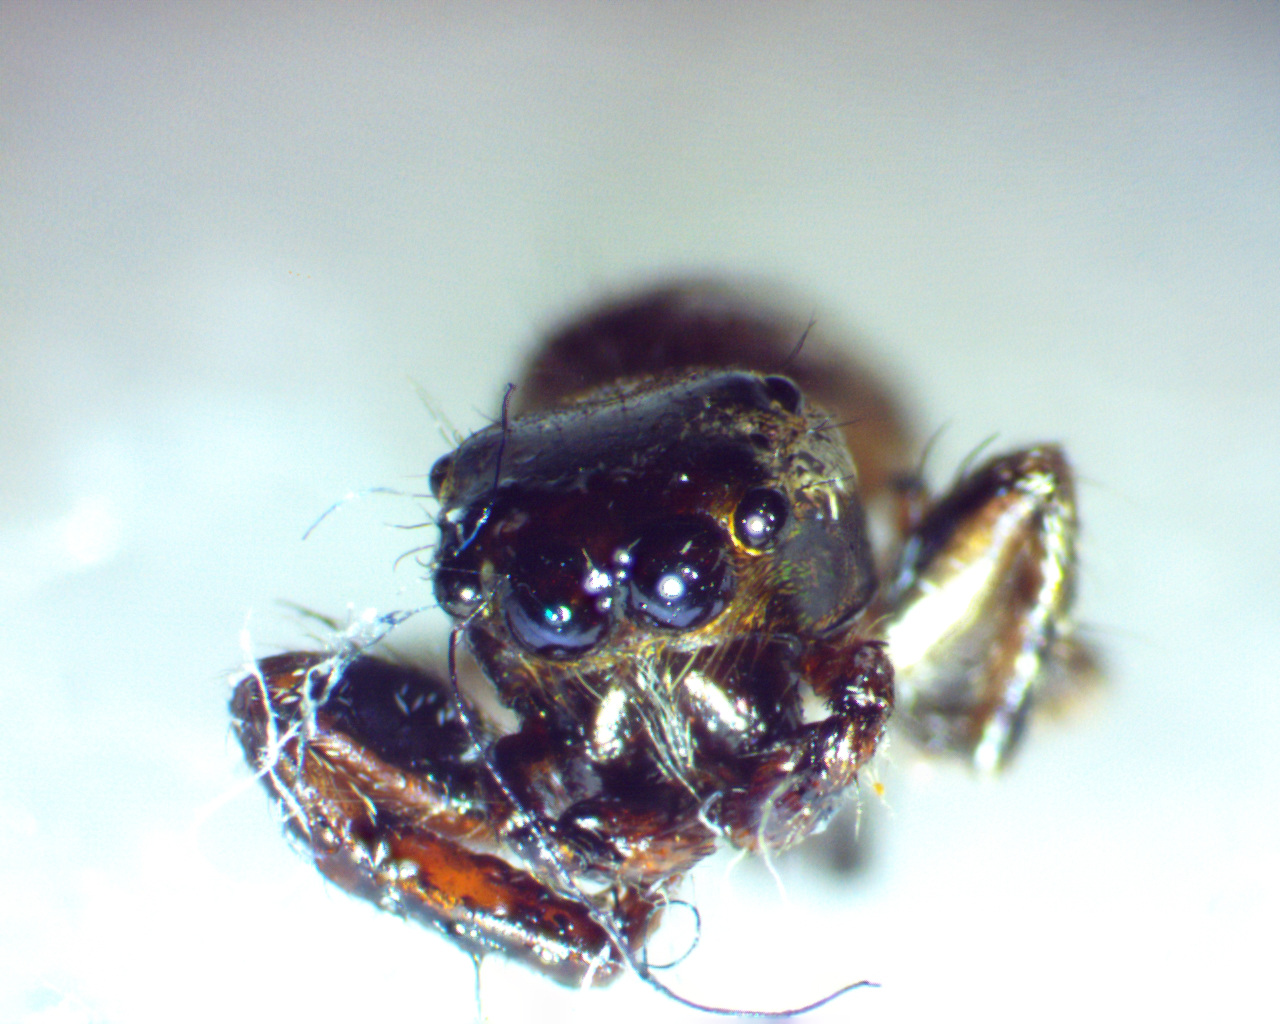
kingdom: Animalia
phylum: Arthropoda
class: Arachnida
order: Araneae
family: Salticidae
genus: Eris
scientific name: Eris militaris
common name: Bronze jumper
